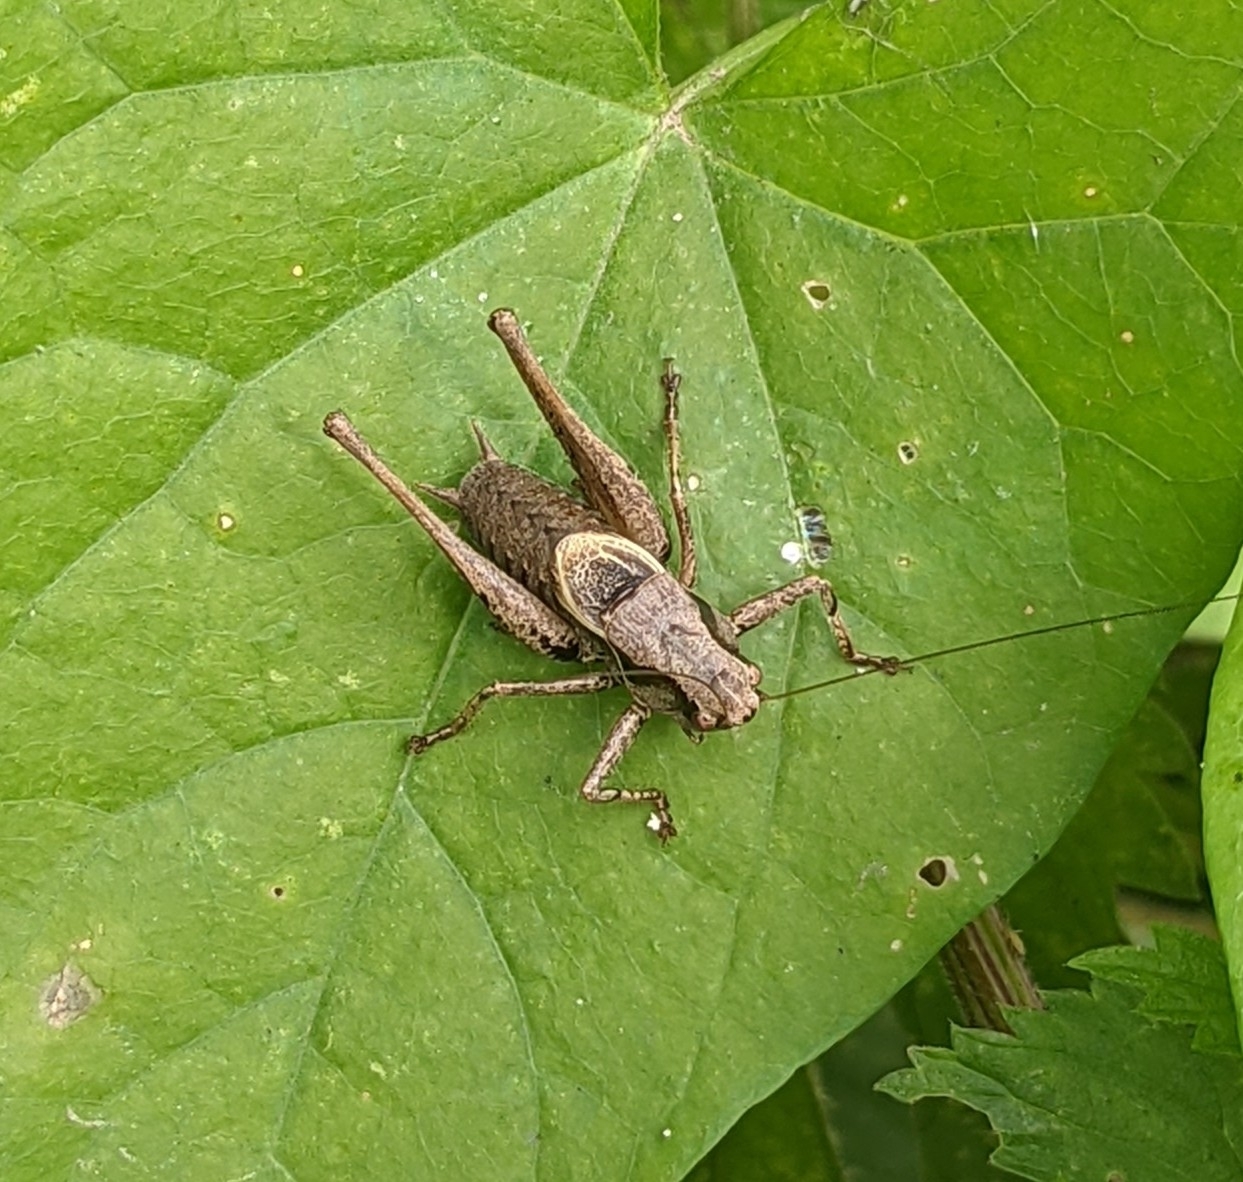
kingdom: Animalia
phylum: Arthropoda
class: Insecta
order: Orthoptera
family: Tettigoniidae
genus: Pholidoptera
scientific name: Pholidoptera griseoaptera
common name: Dark bush-cricket
